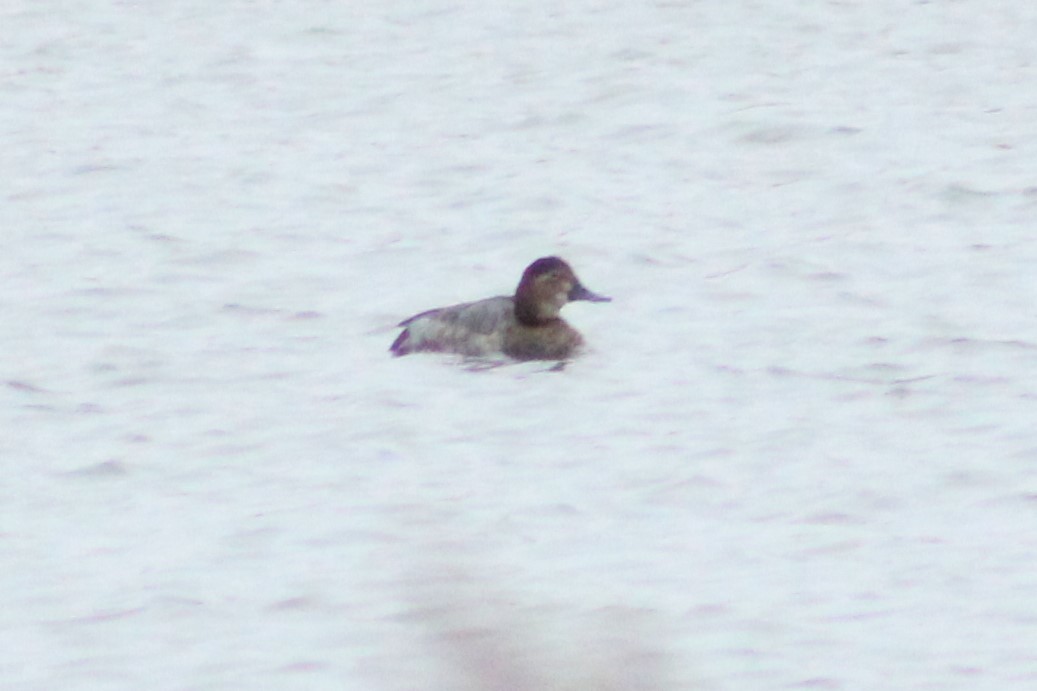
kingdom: Animalia
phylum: Chordata
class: Aves
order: Anseriformes
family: Anatidae
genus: Aythya
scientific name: Aythya ferina
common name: Common pochard
